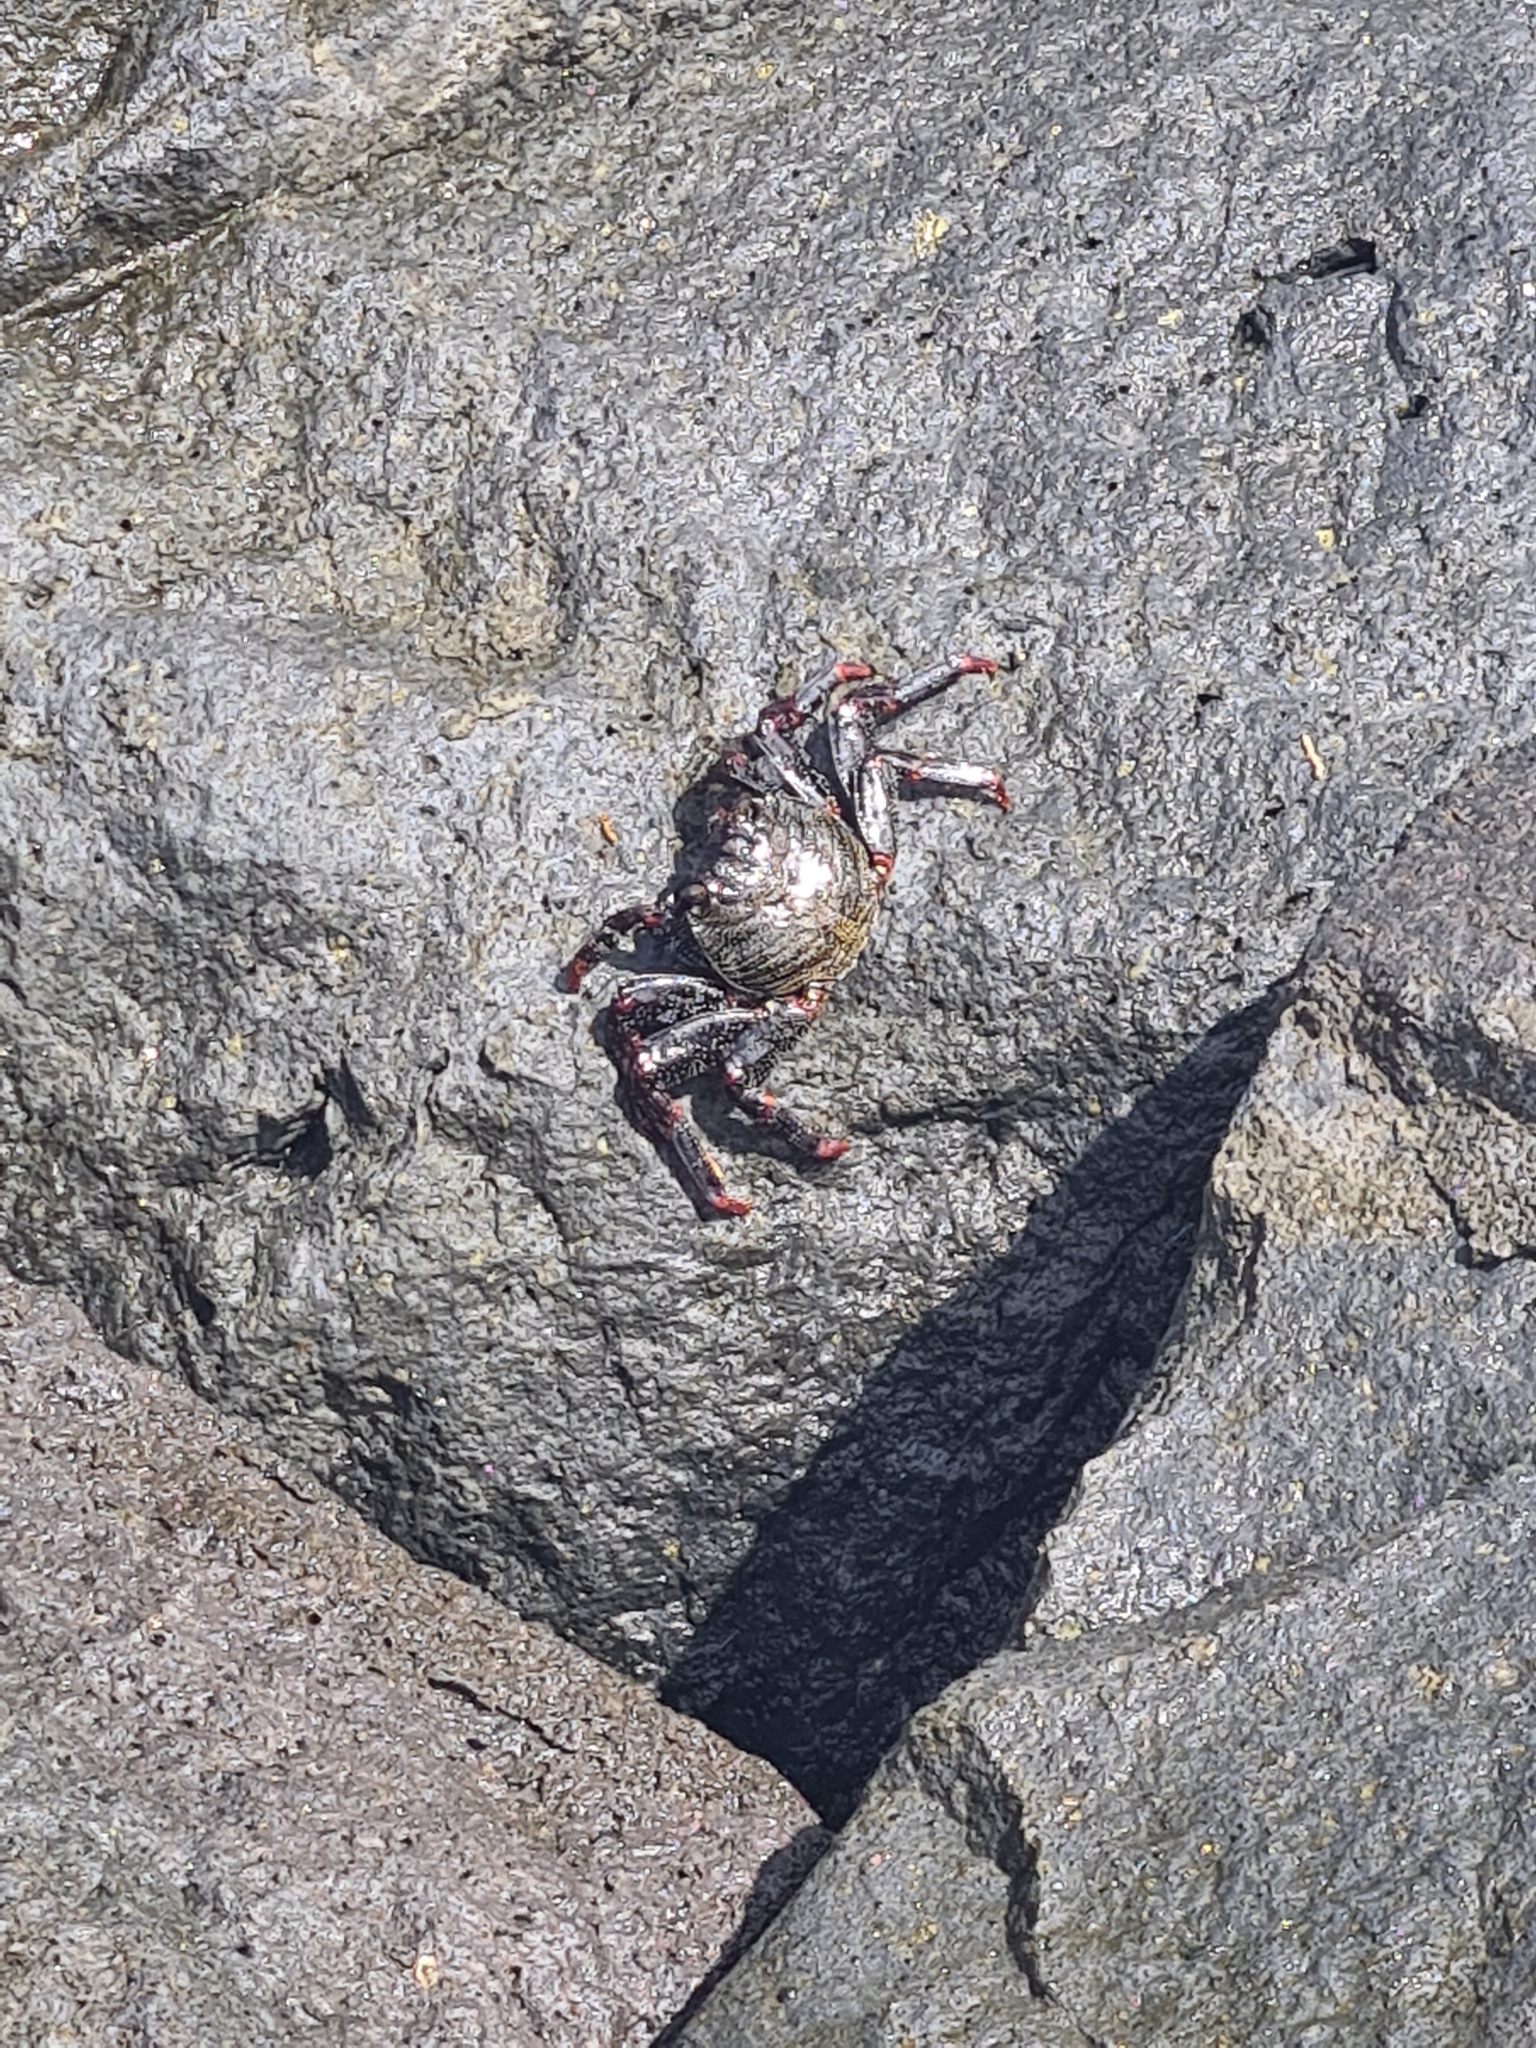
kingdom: Animalia
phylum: Arthropoda
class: Malacostraca
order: Decapoda
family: Grapsidae
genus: Grapsus
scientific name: Grapsus adscensionis
